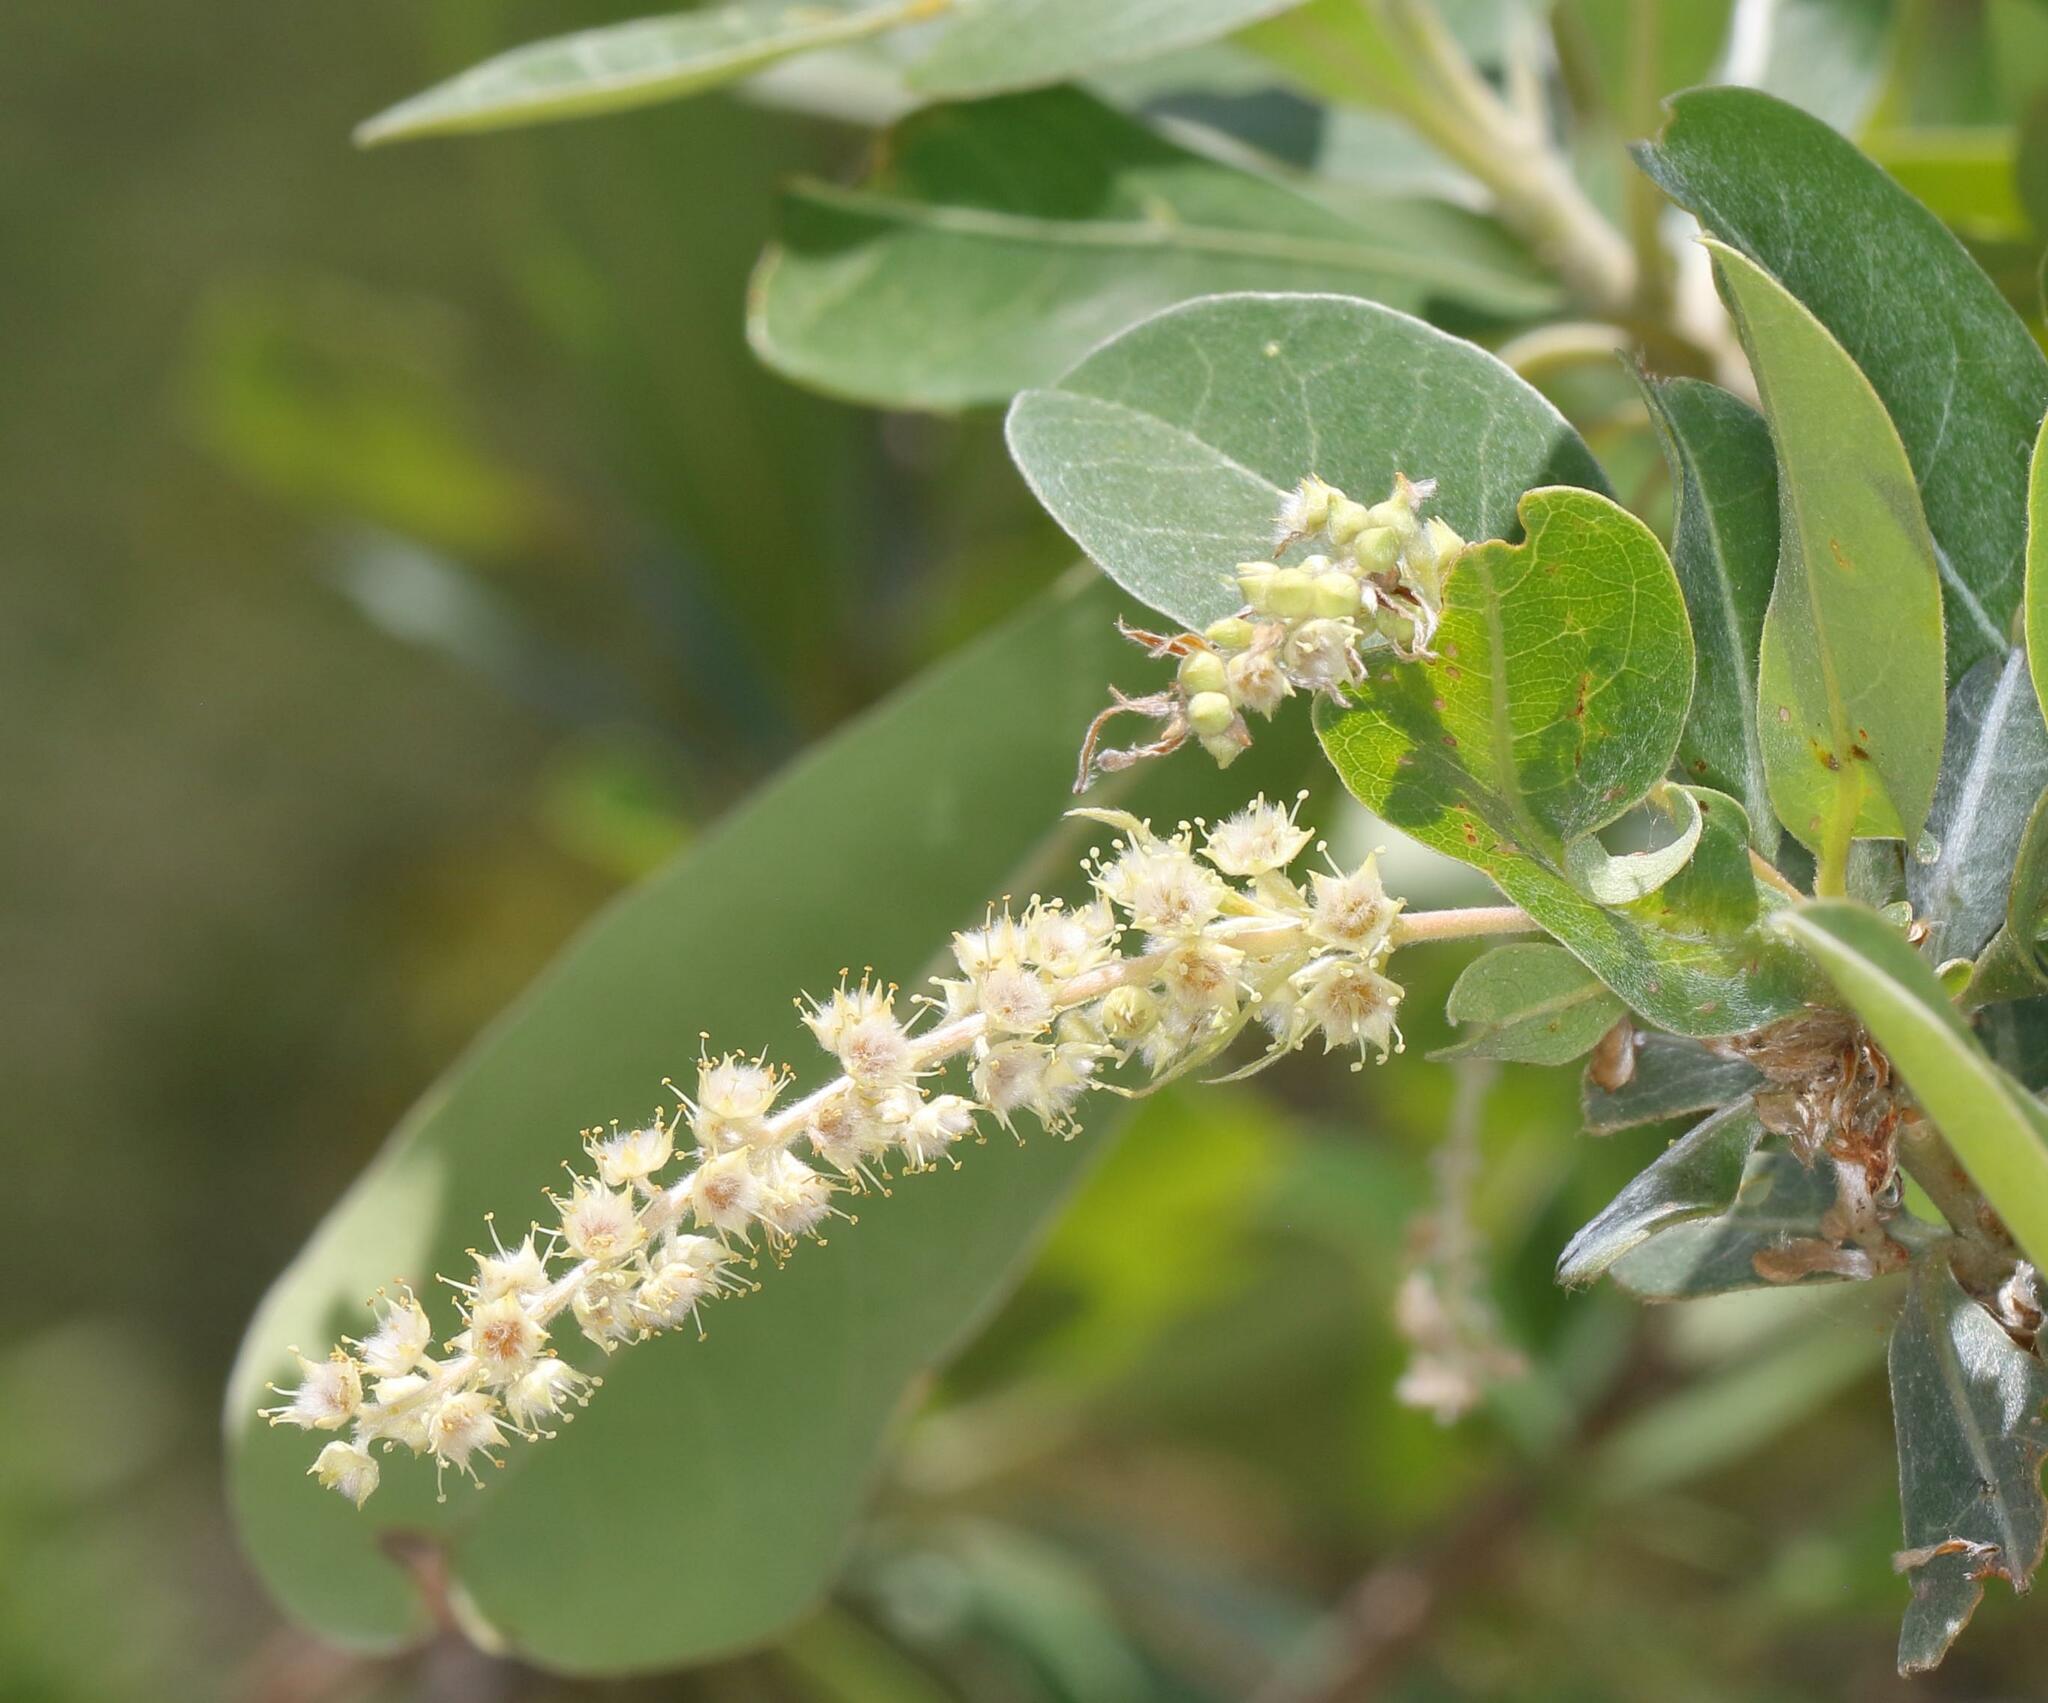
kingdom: Plantae
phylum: Tracheophyta
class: Magnoliopsida
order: Myrtales
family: Combretaceae
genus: Terminalia
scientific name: Terminalia sericea
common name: Clusterleaf
